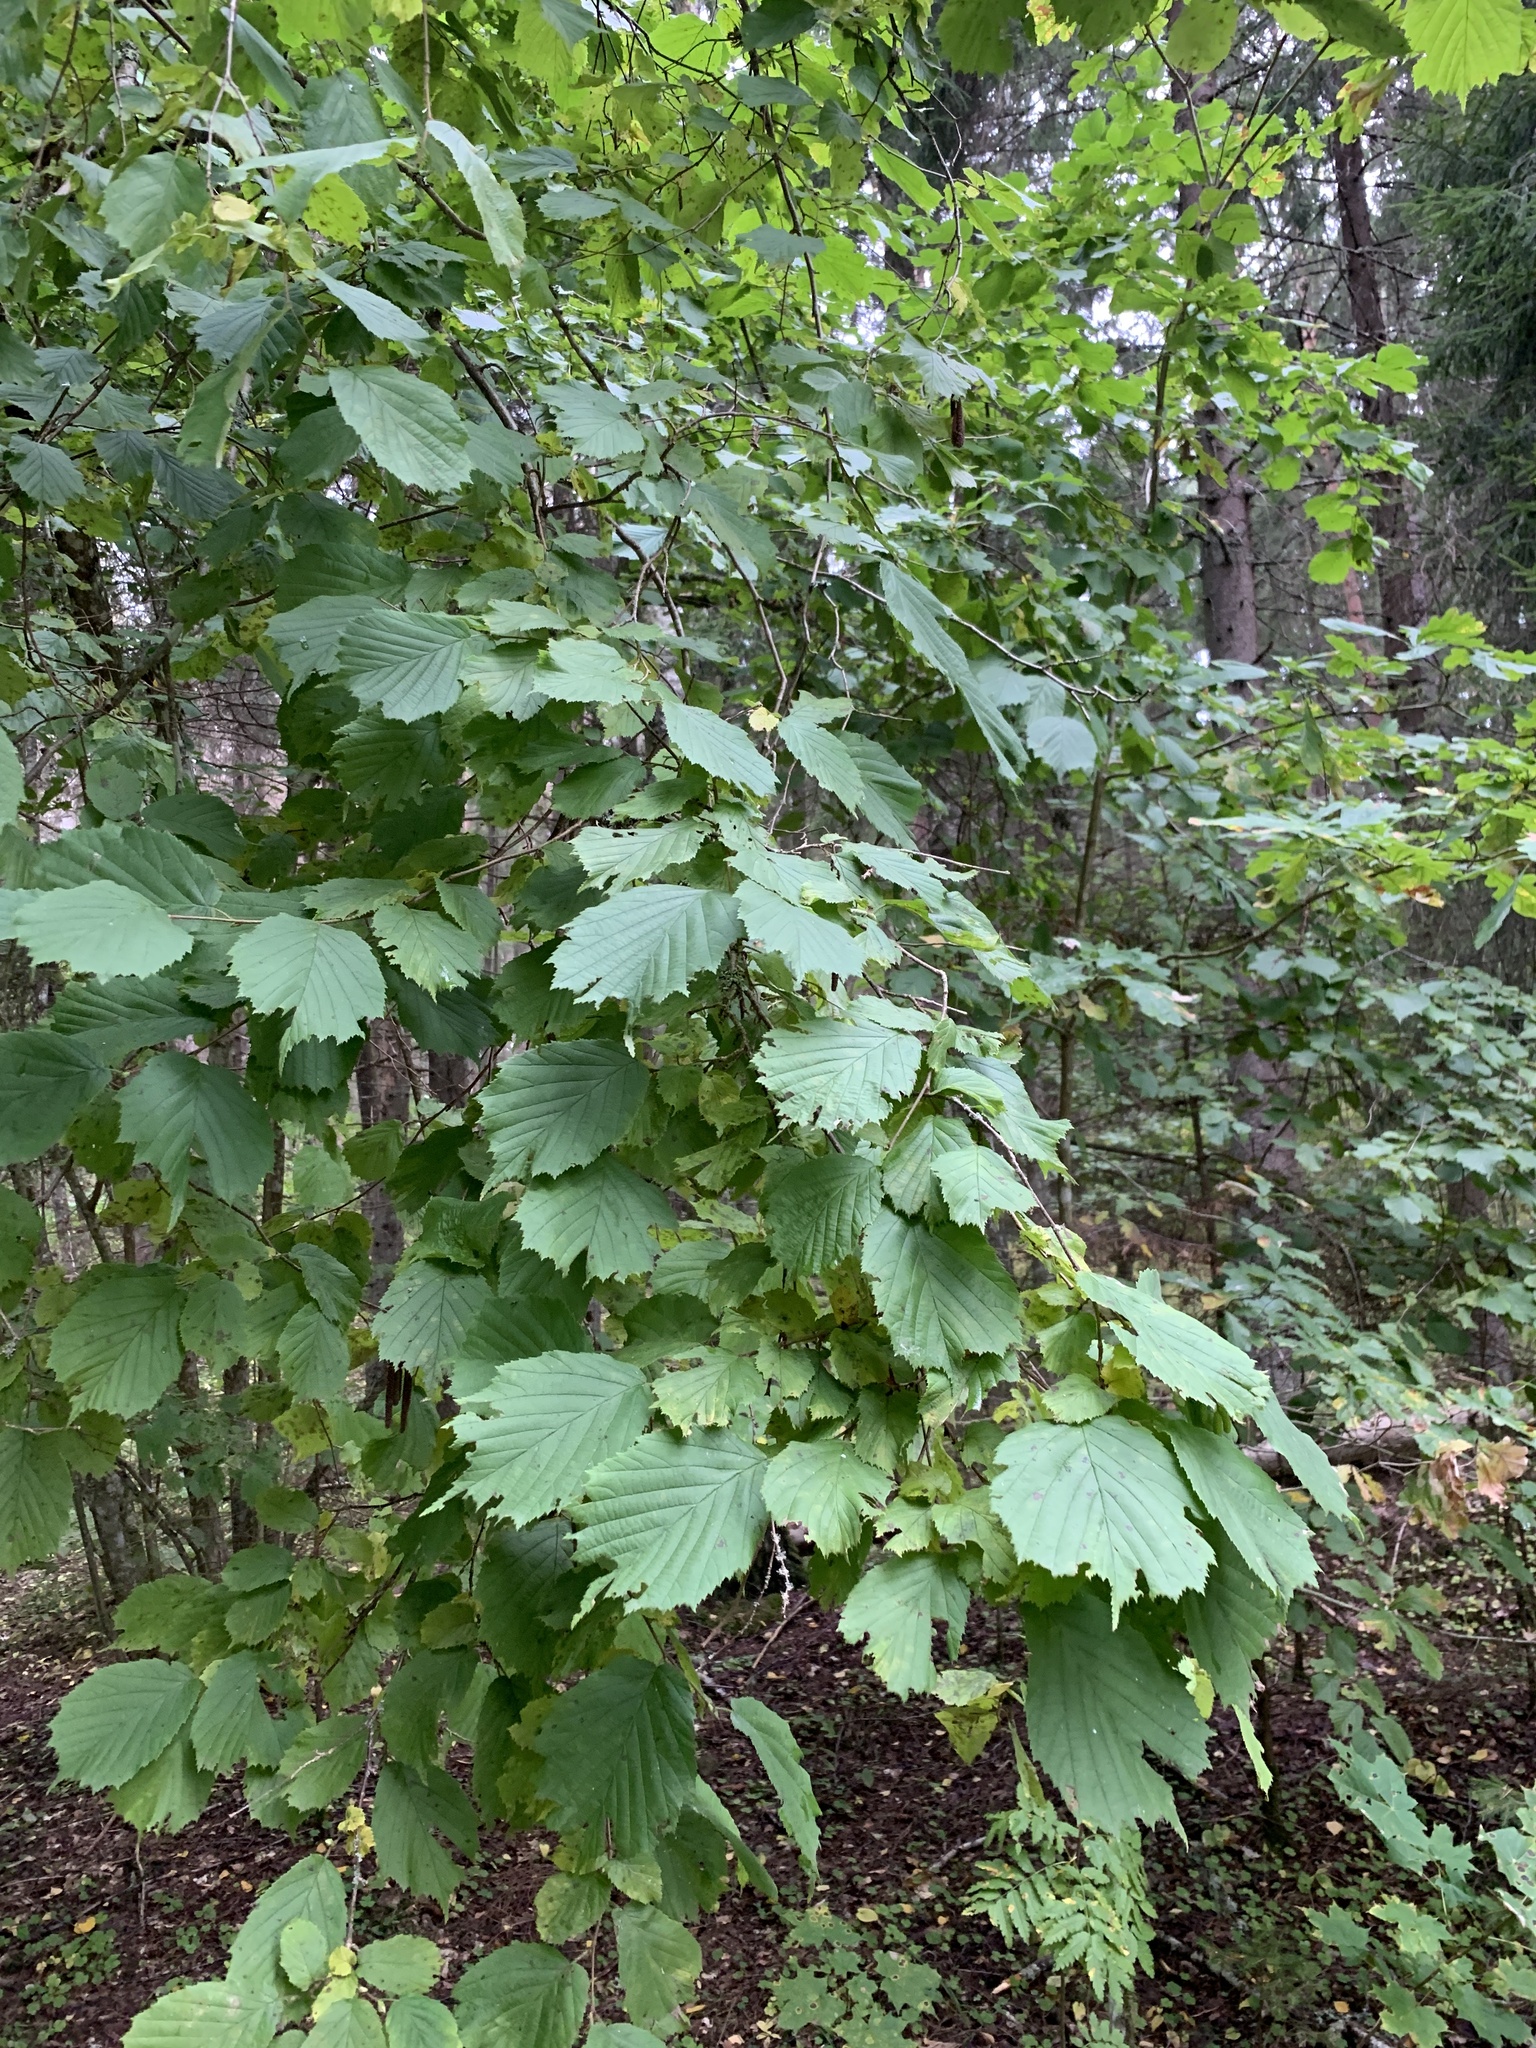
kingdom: Plantae
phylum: Tracheophyta
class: Magnoliopsida
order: Fagales
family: Betulaceae
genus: Corylus
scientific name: Corylus avellana
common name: European hazel
